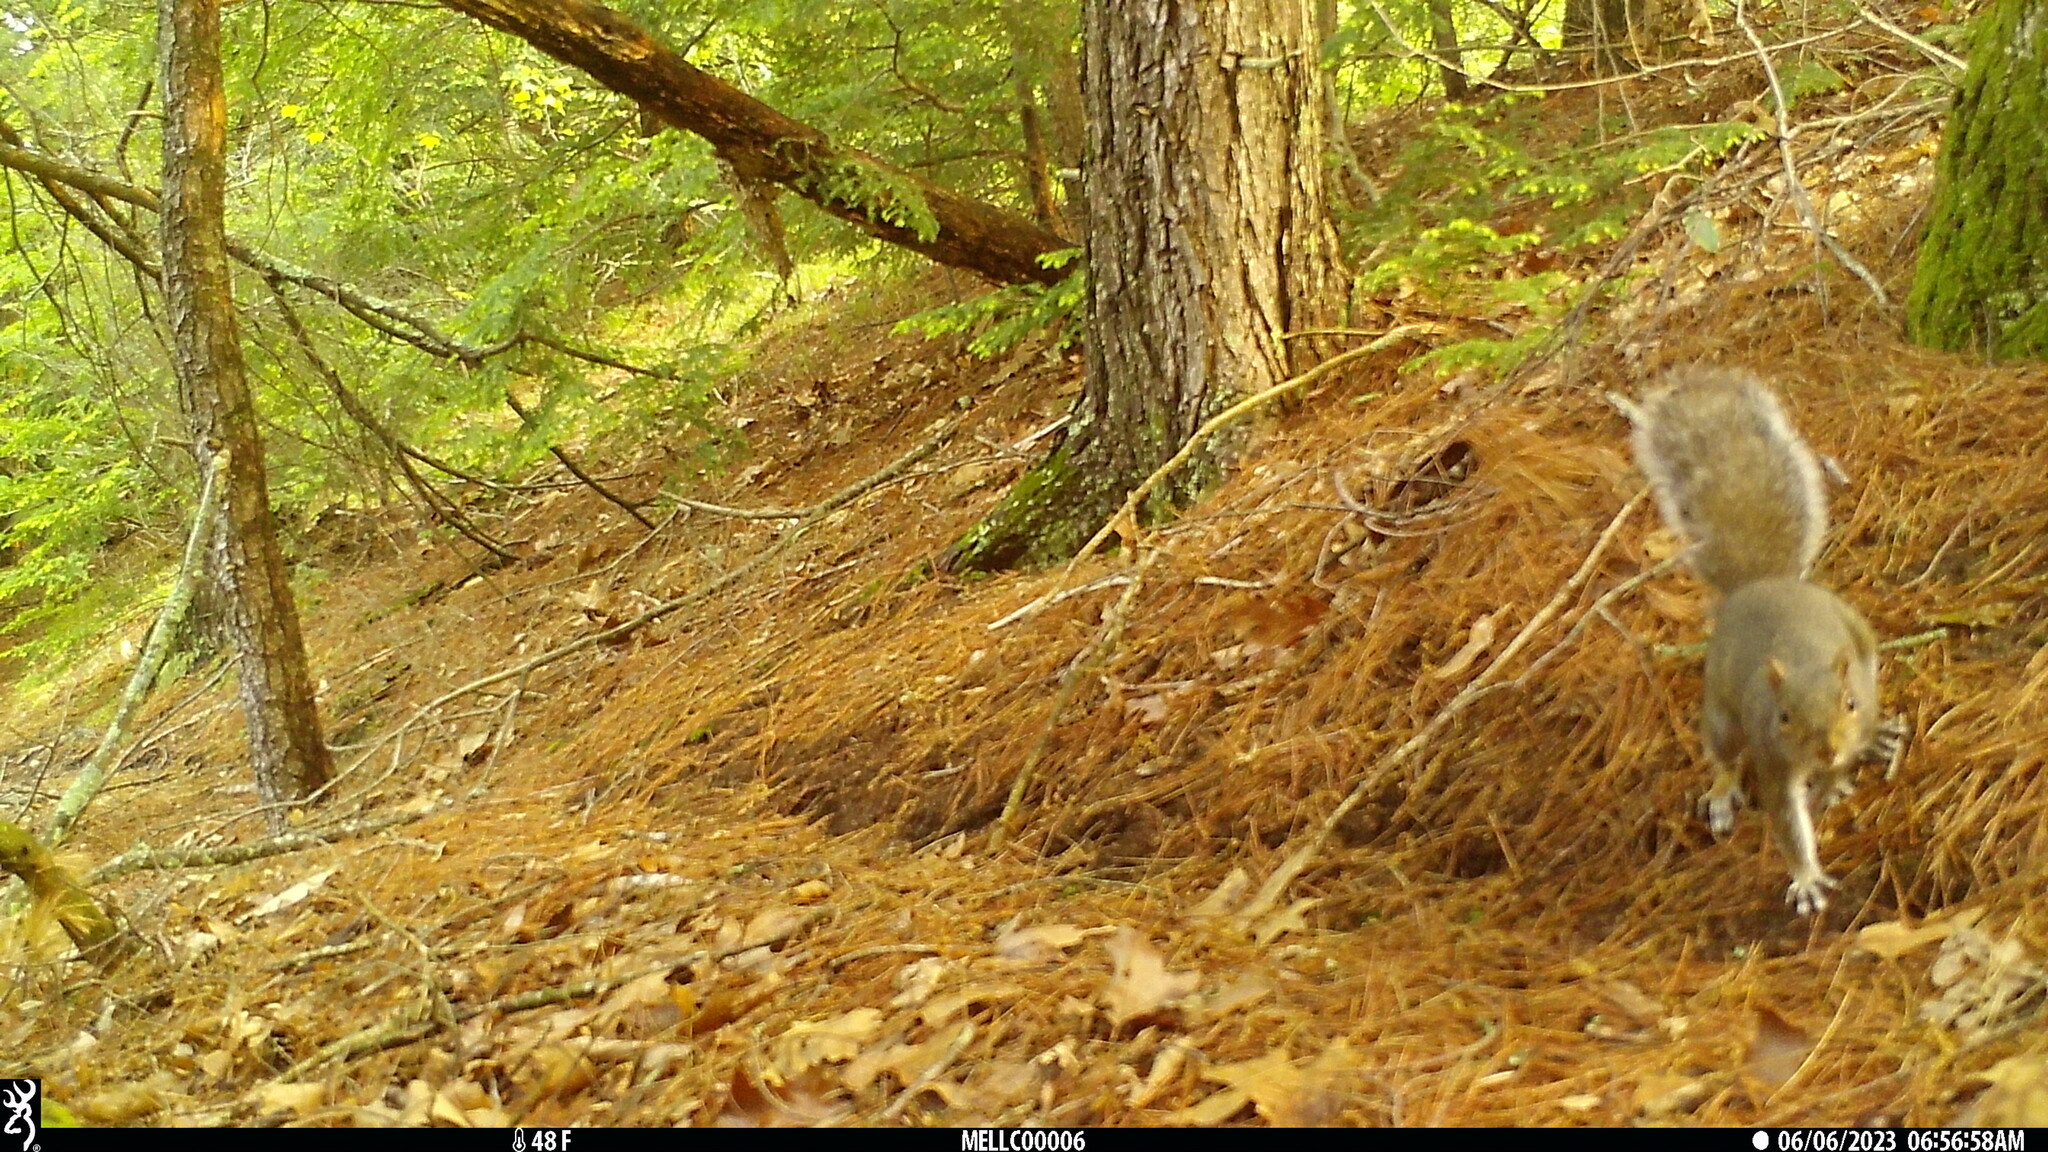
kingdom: Animalia
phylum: Chordata
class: Mammalia
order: Rodentia
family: Sciuridae
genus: Sciurus
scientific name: Sciurus carolinensis
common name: Eastern gray squirrel
